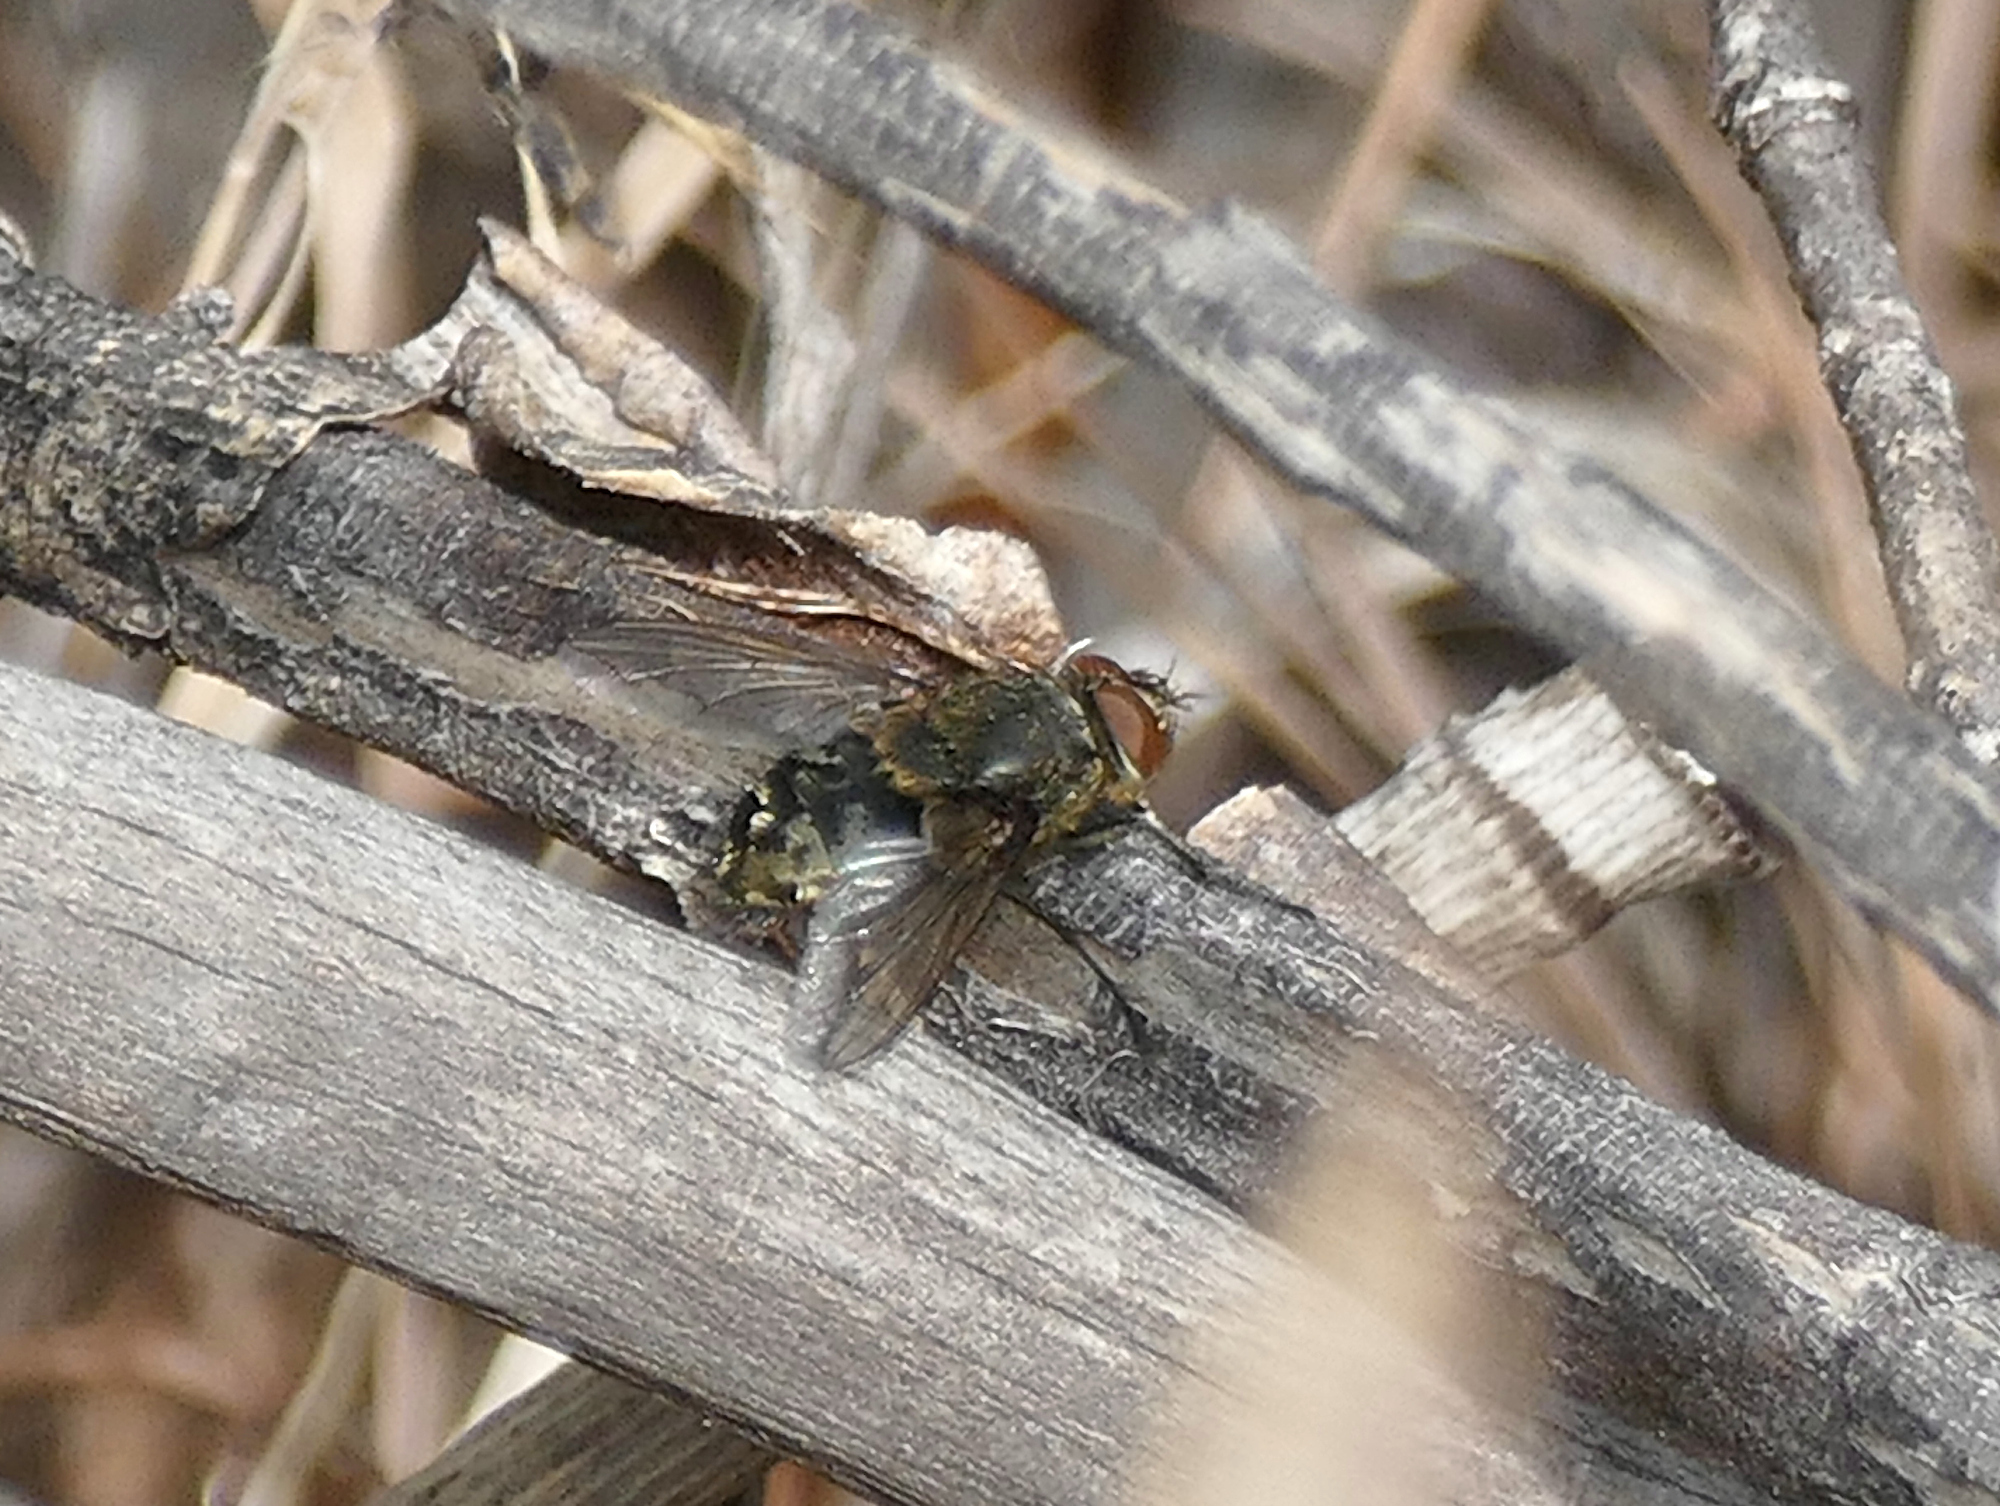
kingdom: Animalia
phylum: Arthropoda
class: Insecta
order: Diptera
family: Polleniidae
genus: Pollenia
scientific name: Pollenia
